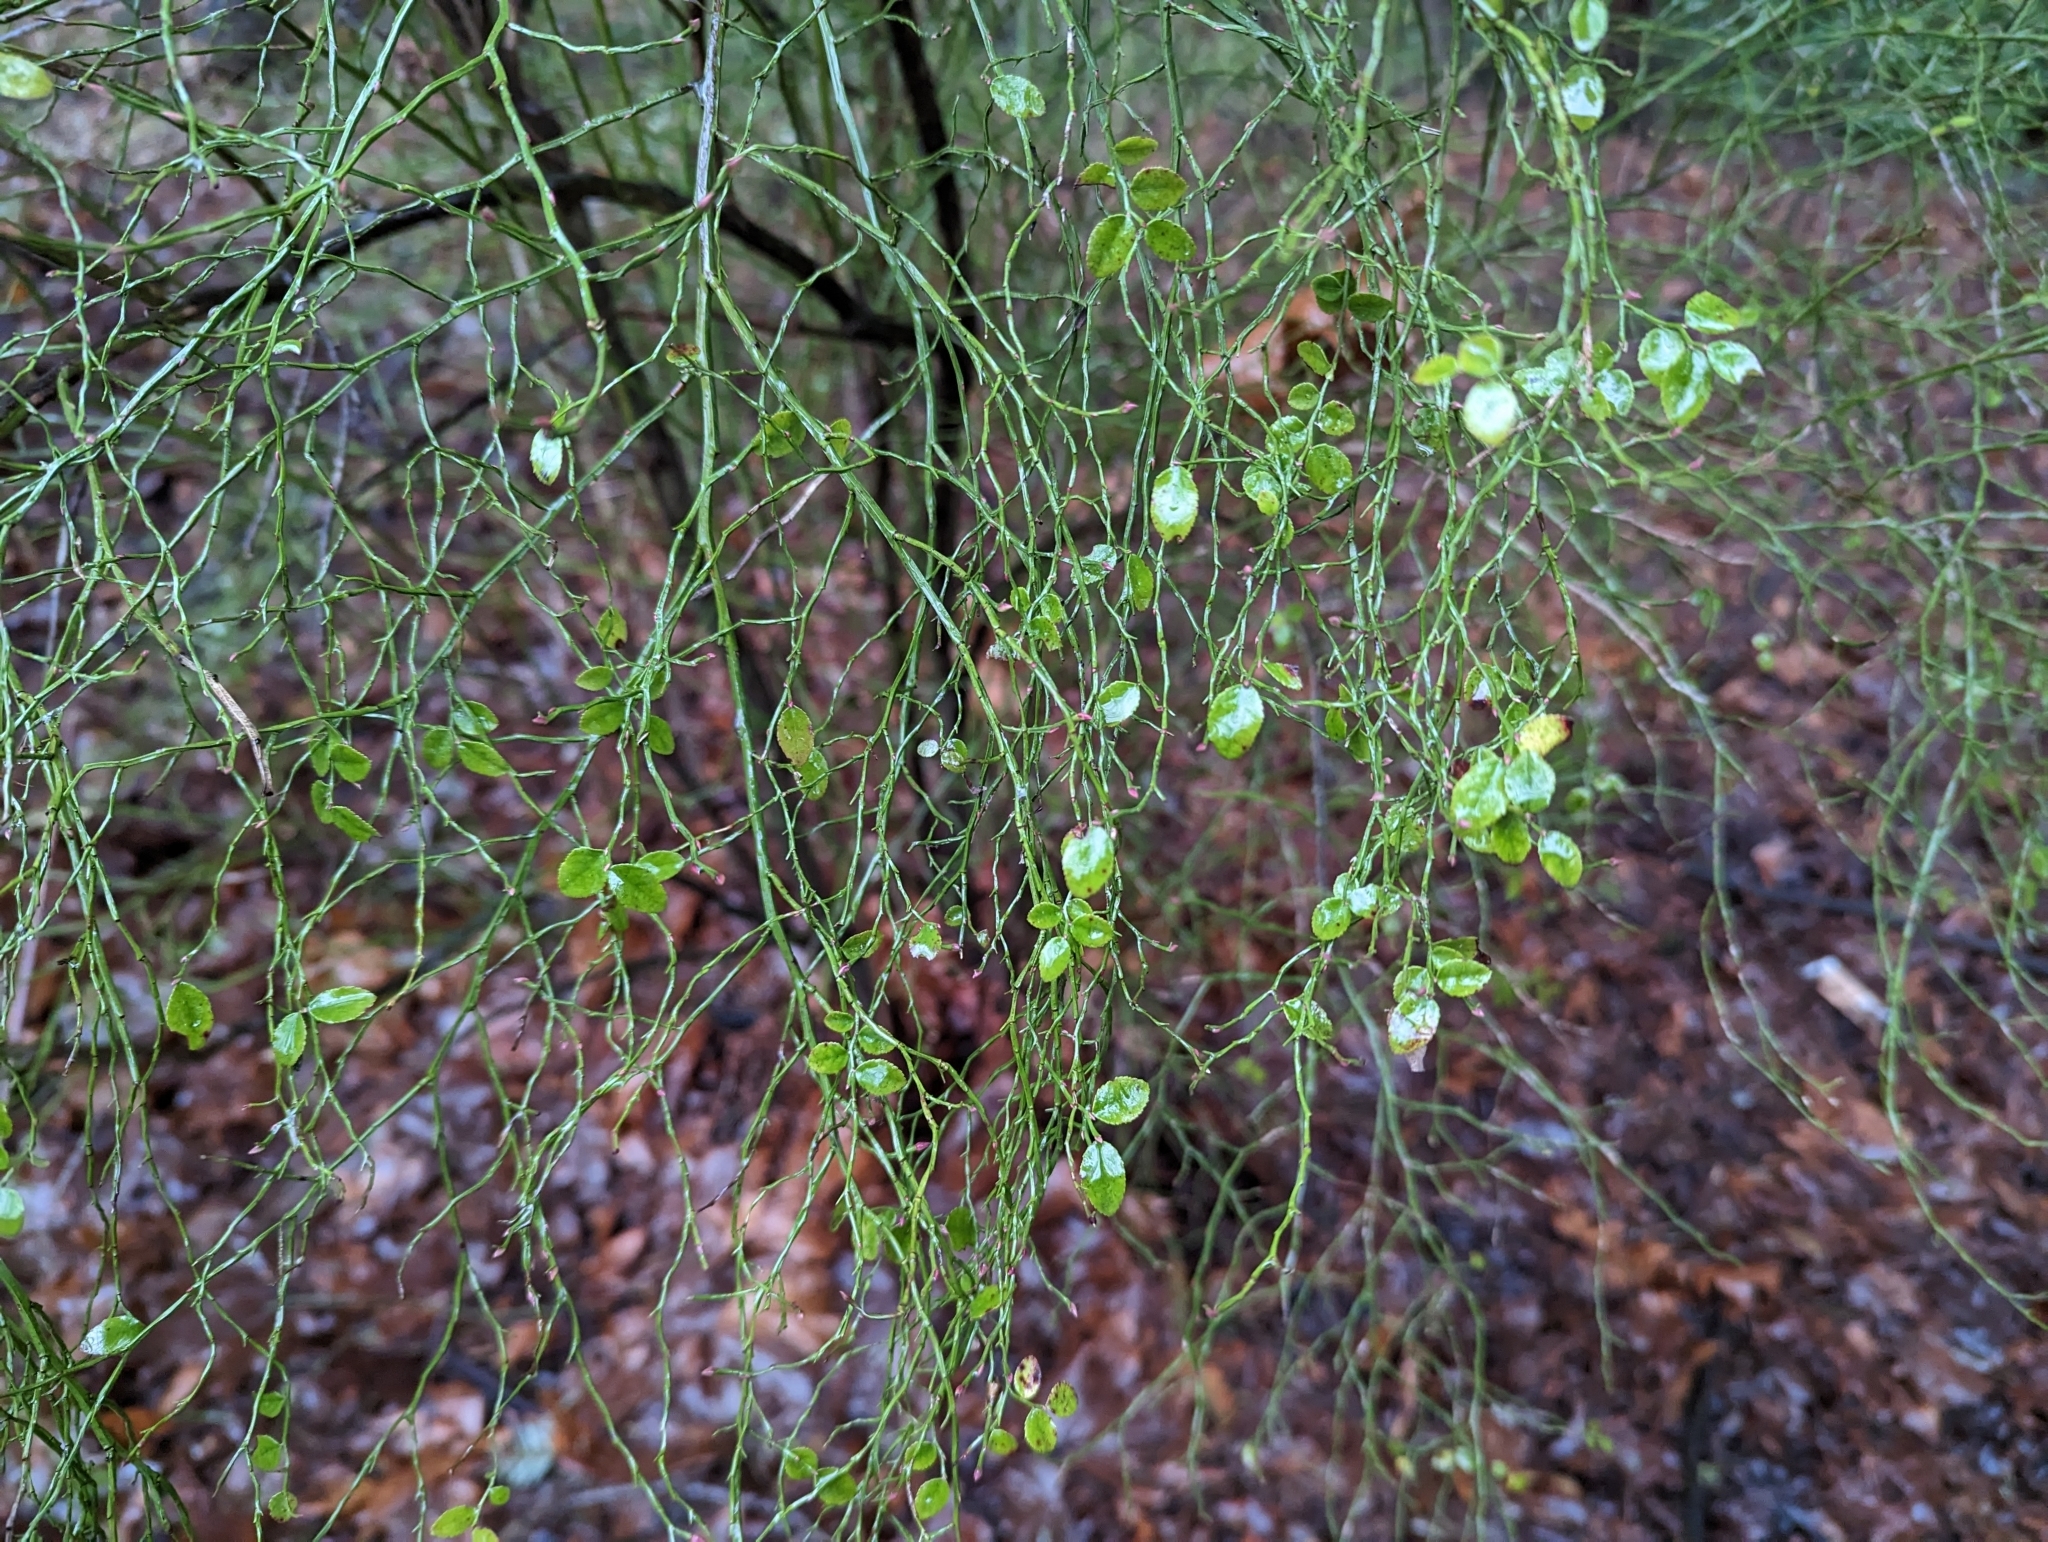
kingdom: Plantae
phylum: Tracheophyta
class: Magnoliopsida
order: Ericales
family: Ericaceae
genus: Vaccinium
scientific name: Vaccinium parvifolium
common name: Red-huckleberry
